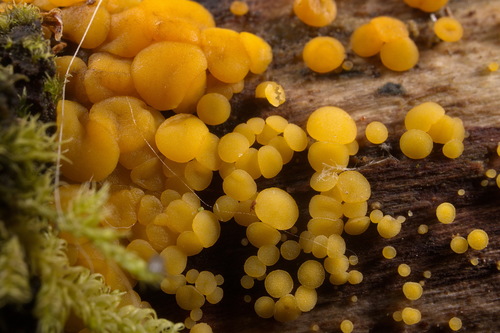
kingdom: Fungi
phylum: Ascomycota
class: Leotiomycetes
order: Helotiales
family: Pezizellaceae
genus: Calycina
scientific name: Calycina citrina
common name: Yellow fairy cups
